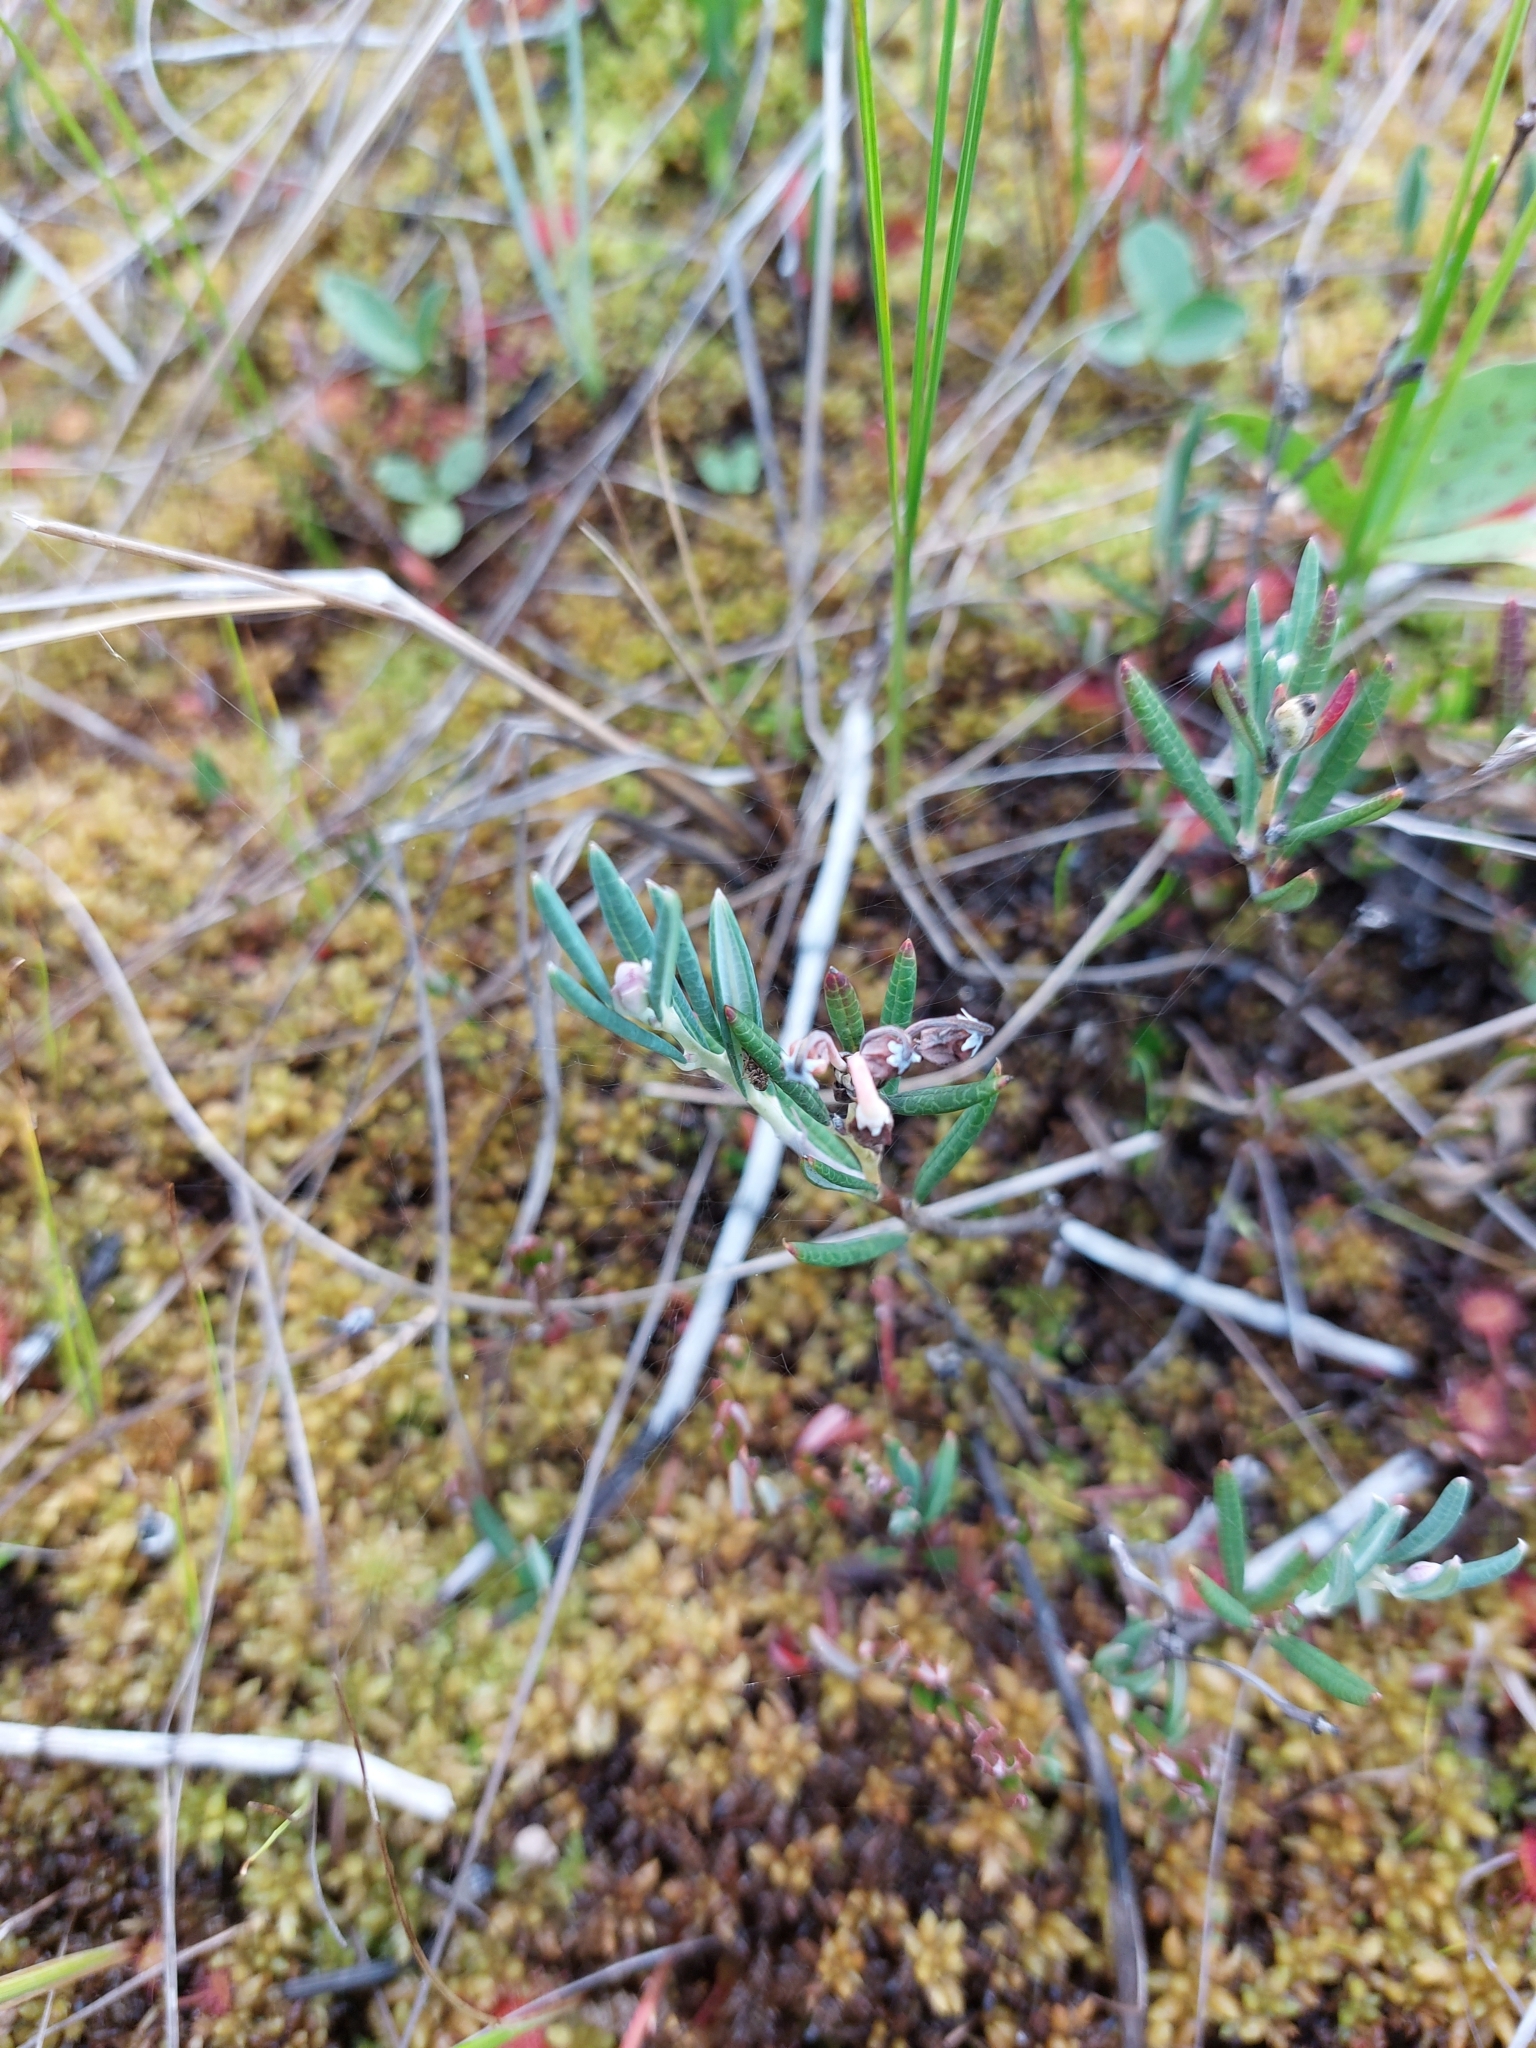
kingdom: Plantae
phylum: Tracheophyta
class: Magnoliopsida
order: Ericales
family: Ericaceae
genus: Andromeda
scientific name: Andromeda polifolia
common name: Bog-rosemary
